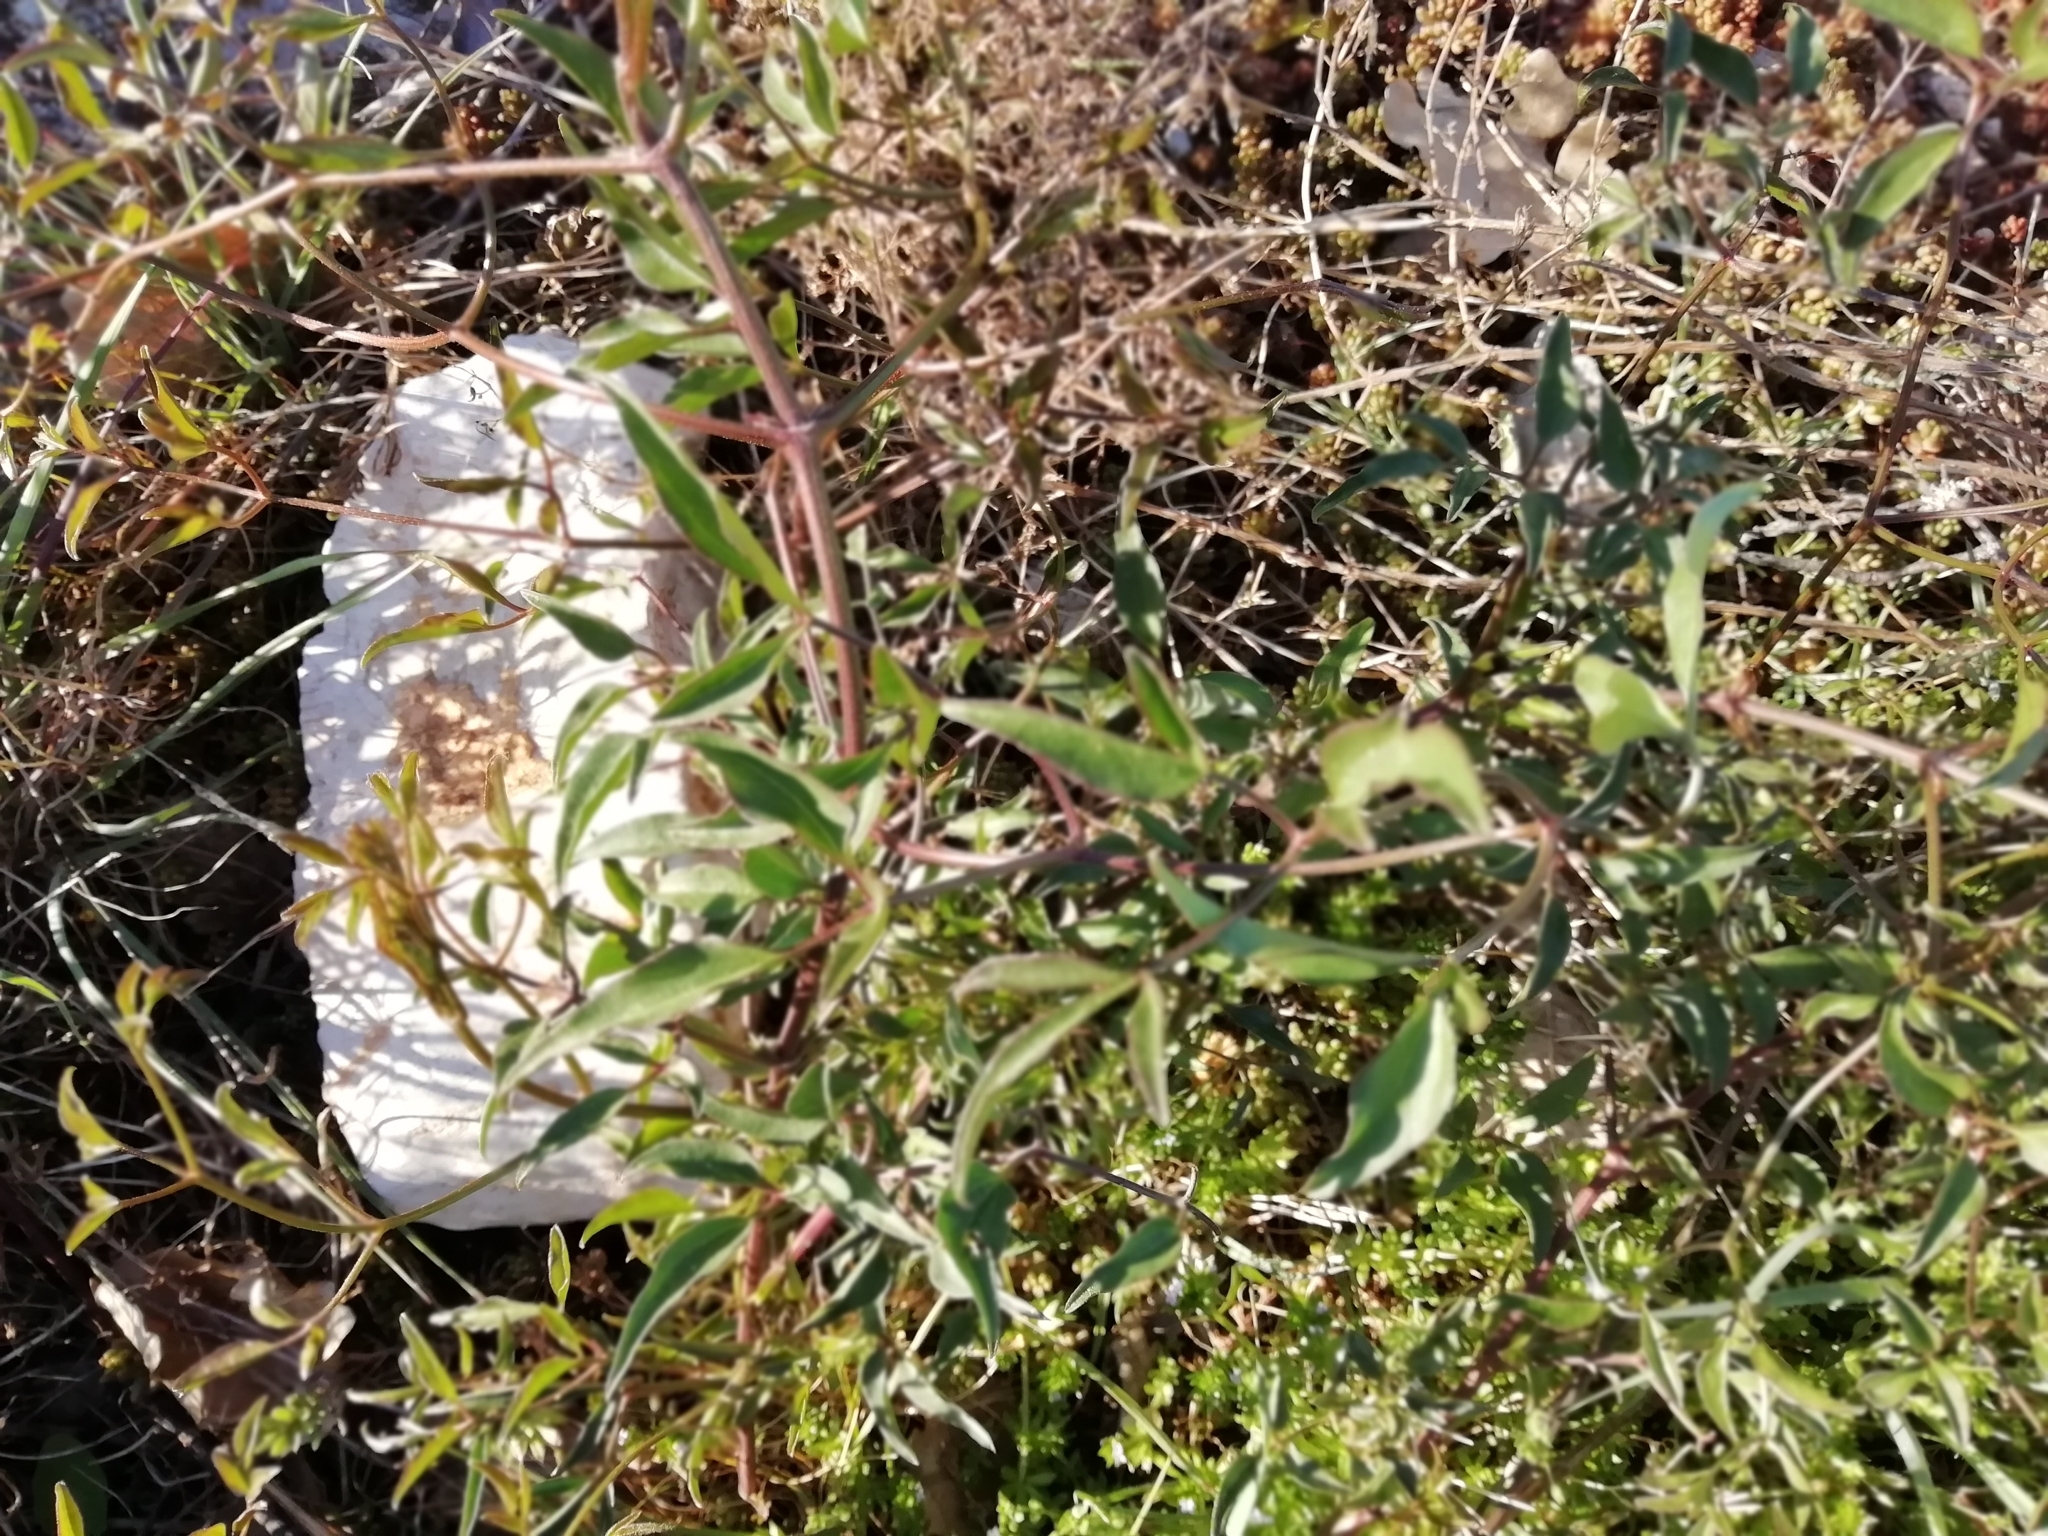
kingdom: Plantae
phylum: Tracheophyta
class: Magnoliopsida
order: Ranunculales
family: Ranunculaceae
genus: Clematis
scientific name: Clematis flammula
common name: Virgin's-bower
